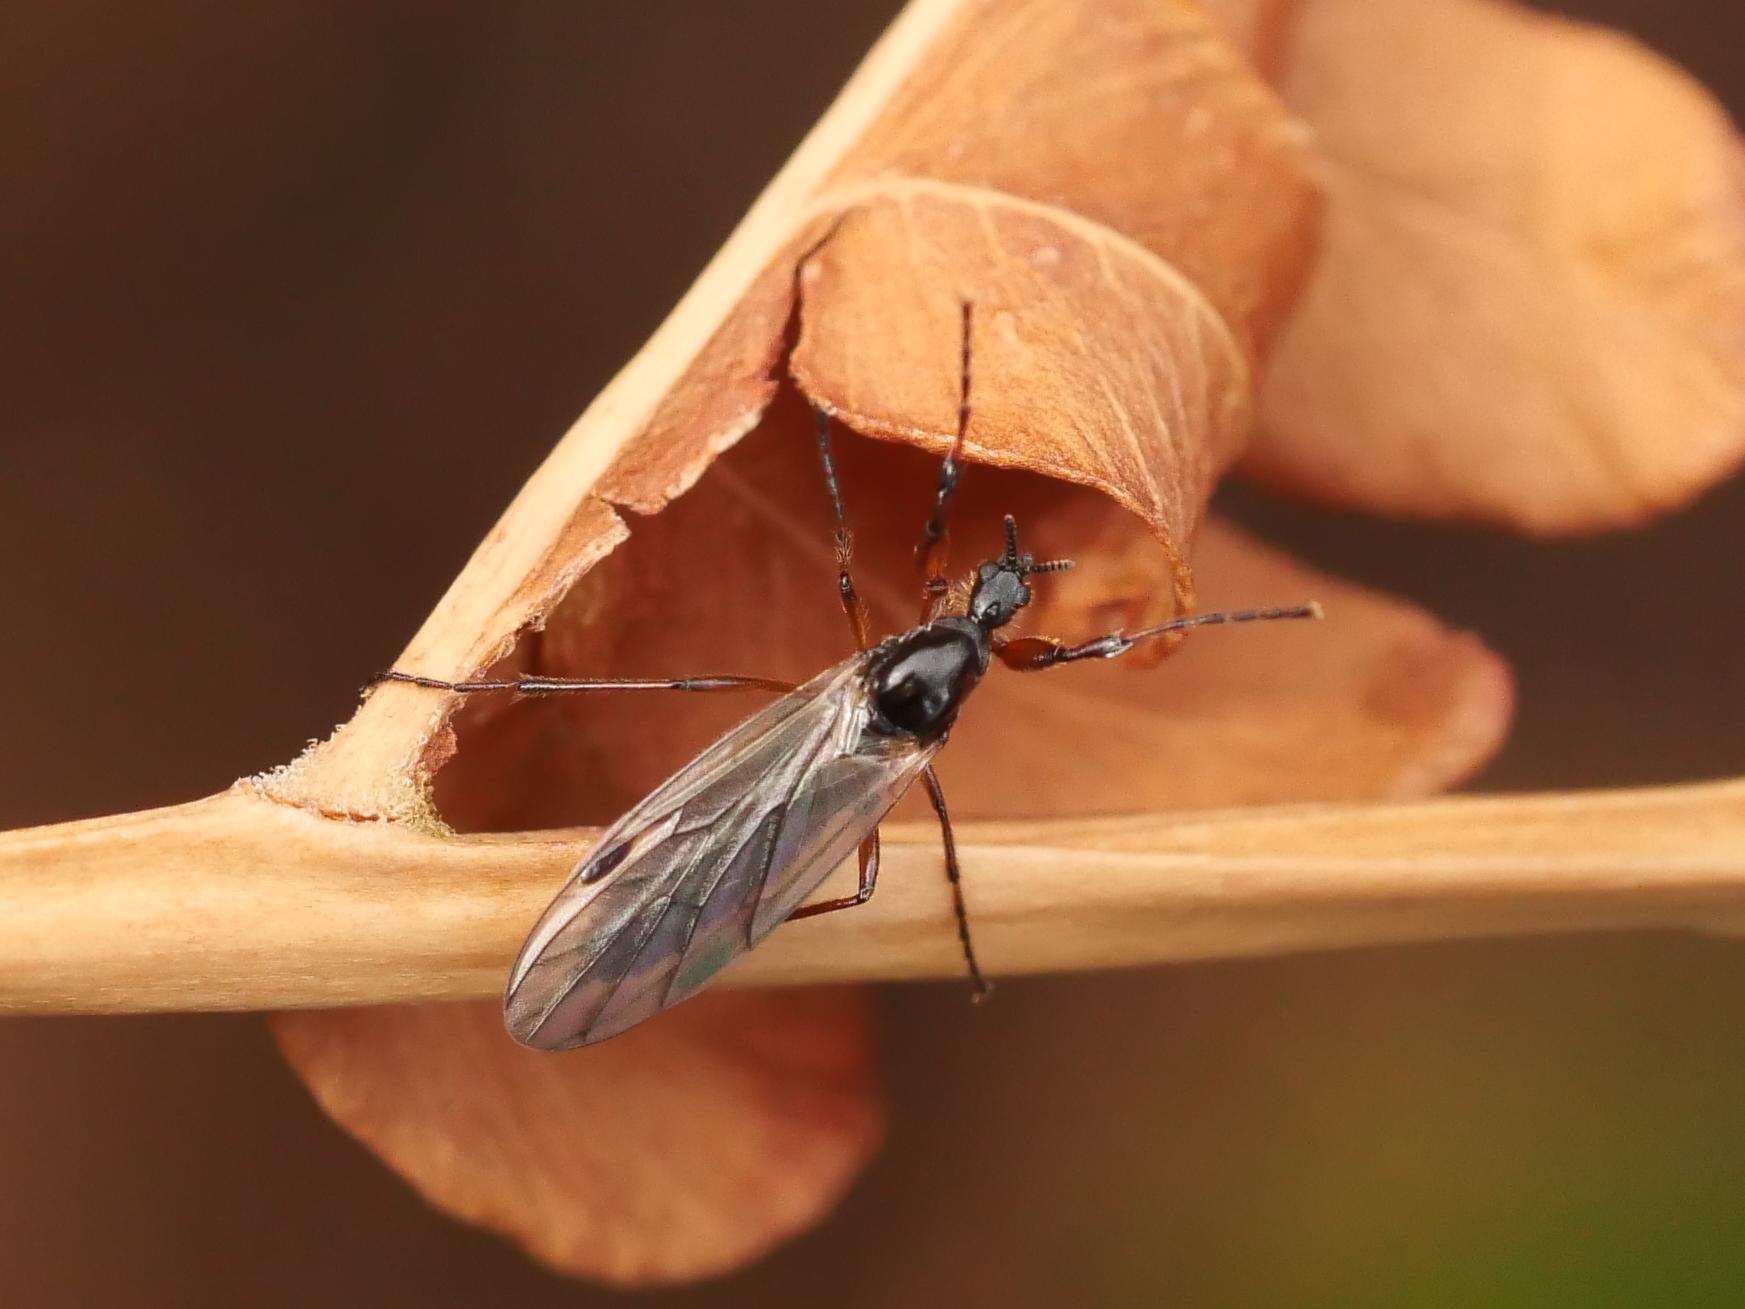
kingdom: Animalia
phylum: Arthropoda
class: Insecta
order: Diptera
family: Bibionidae
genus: Bibio
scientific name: Bibio slossonae
